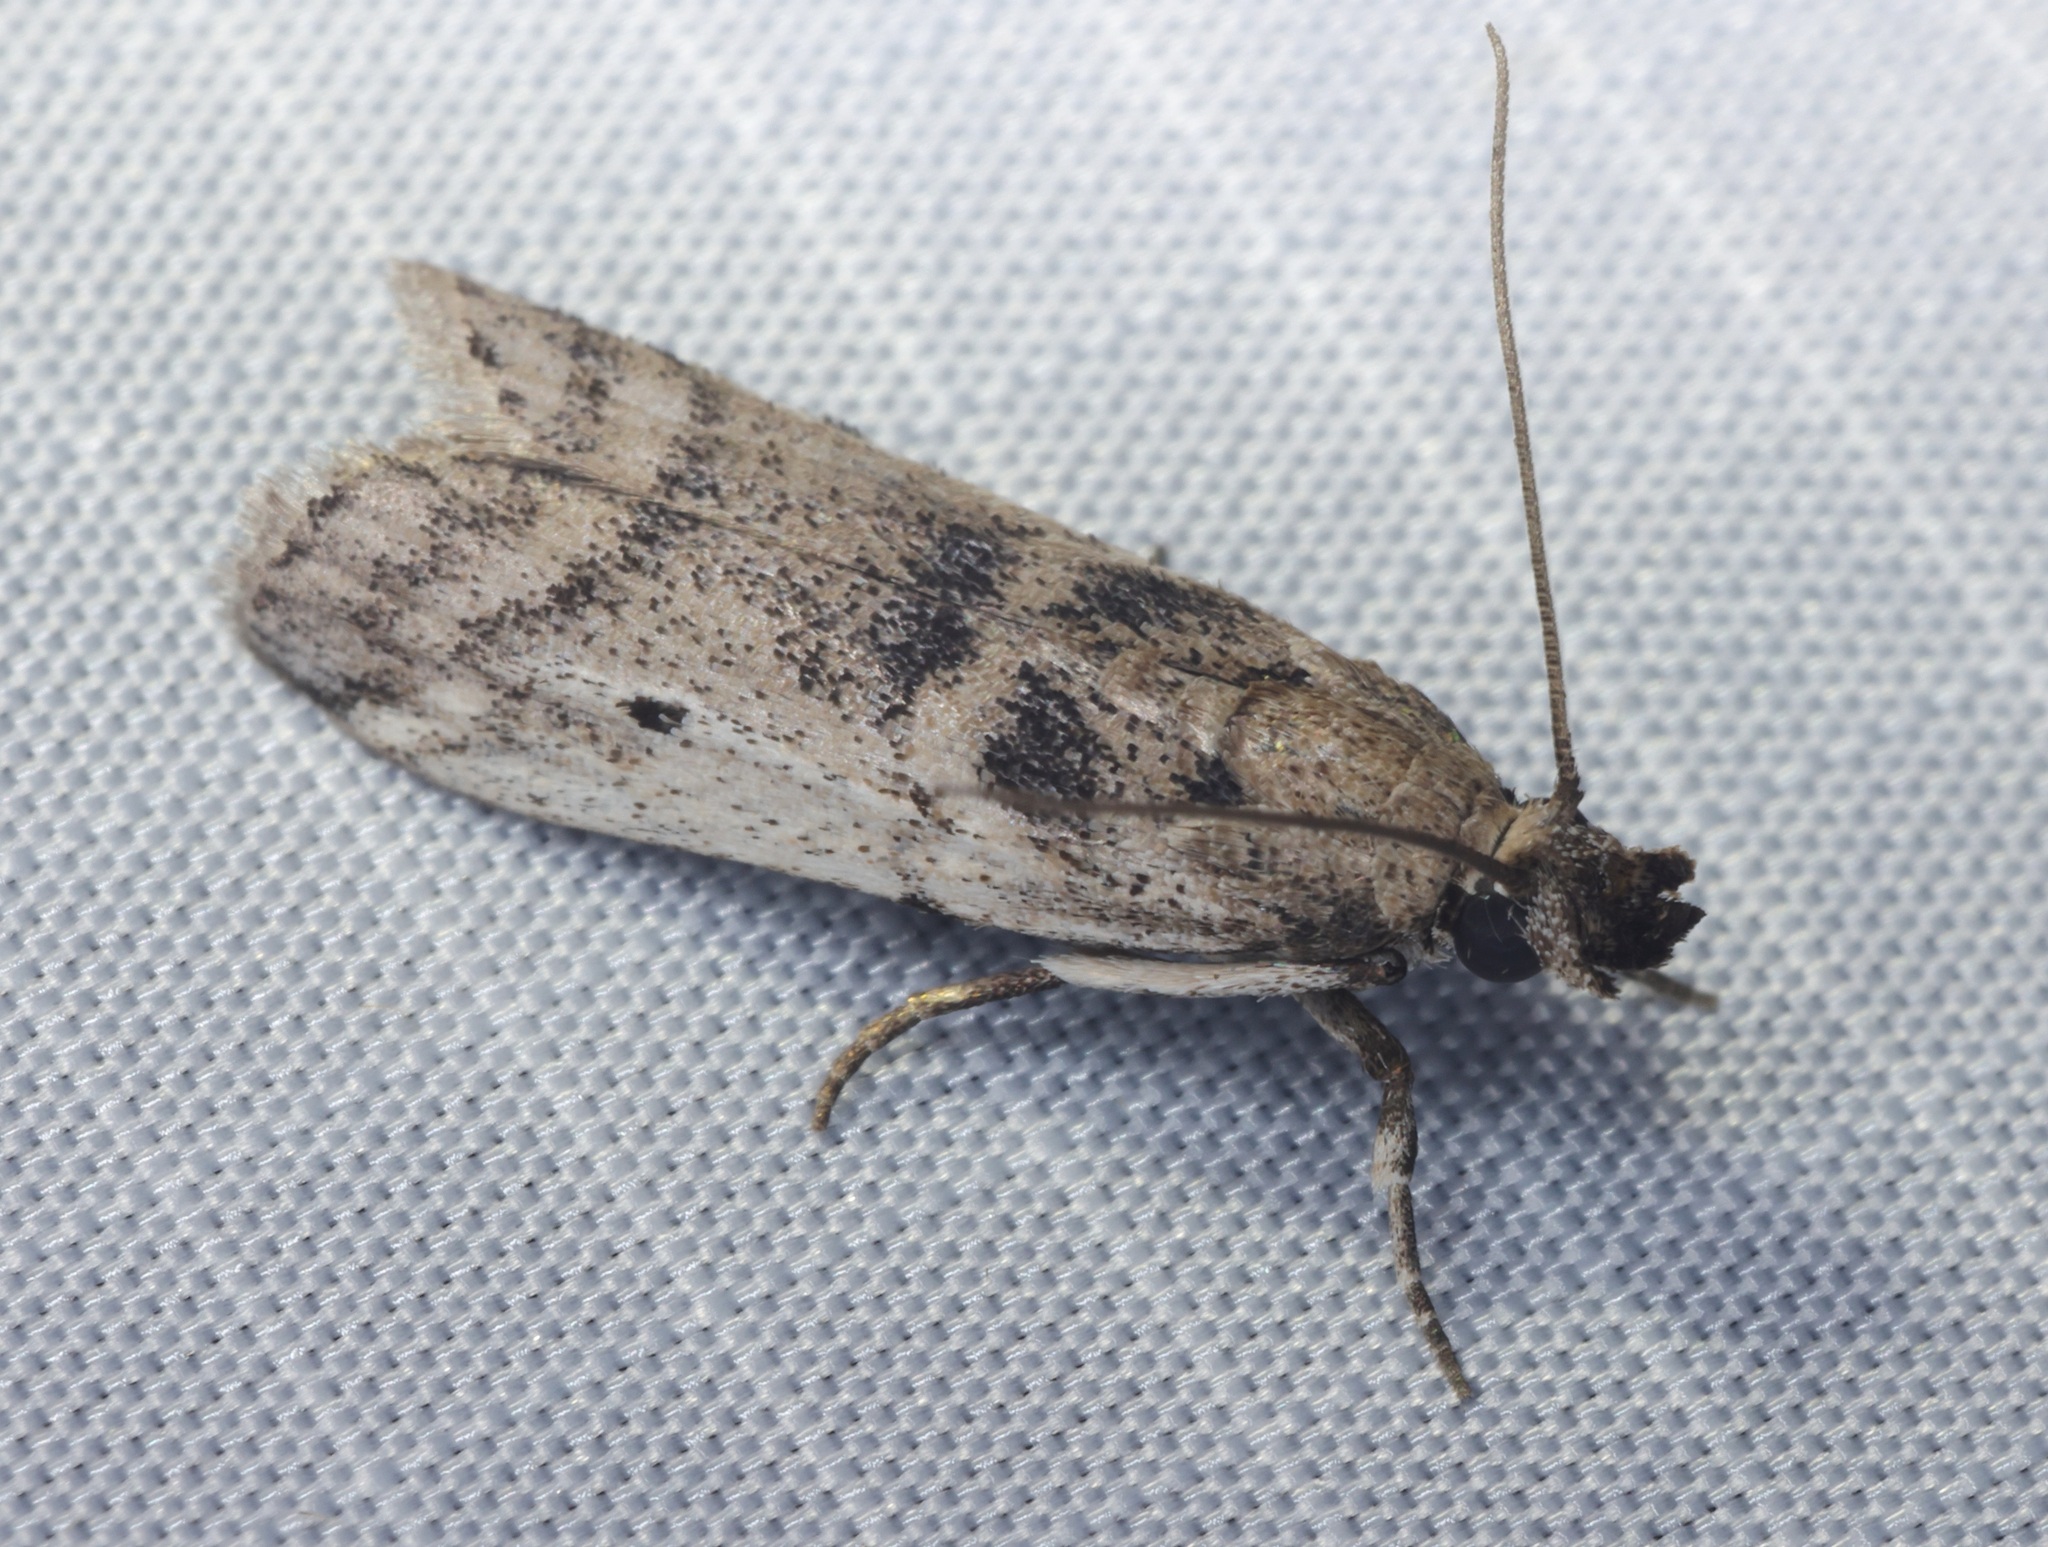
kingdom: Animalia
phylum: Arthropoda
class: Insecta
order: Lepidoptera
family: Pyralidae
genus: Vinicia
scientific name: Vinicia
